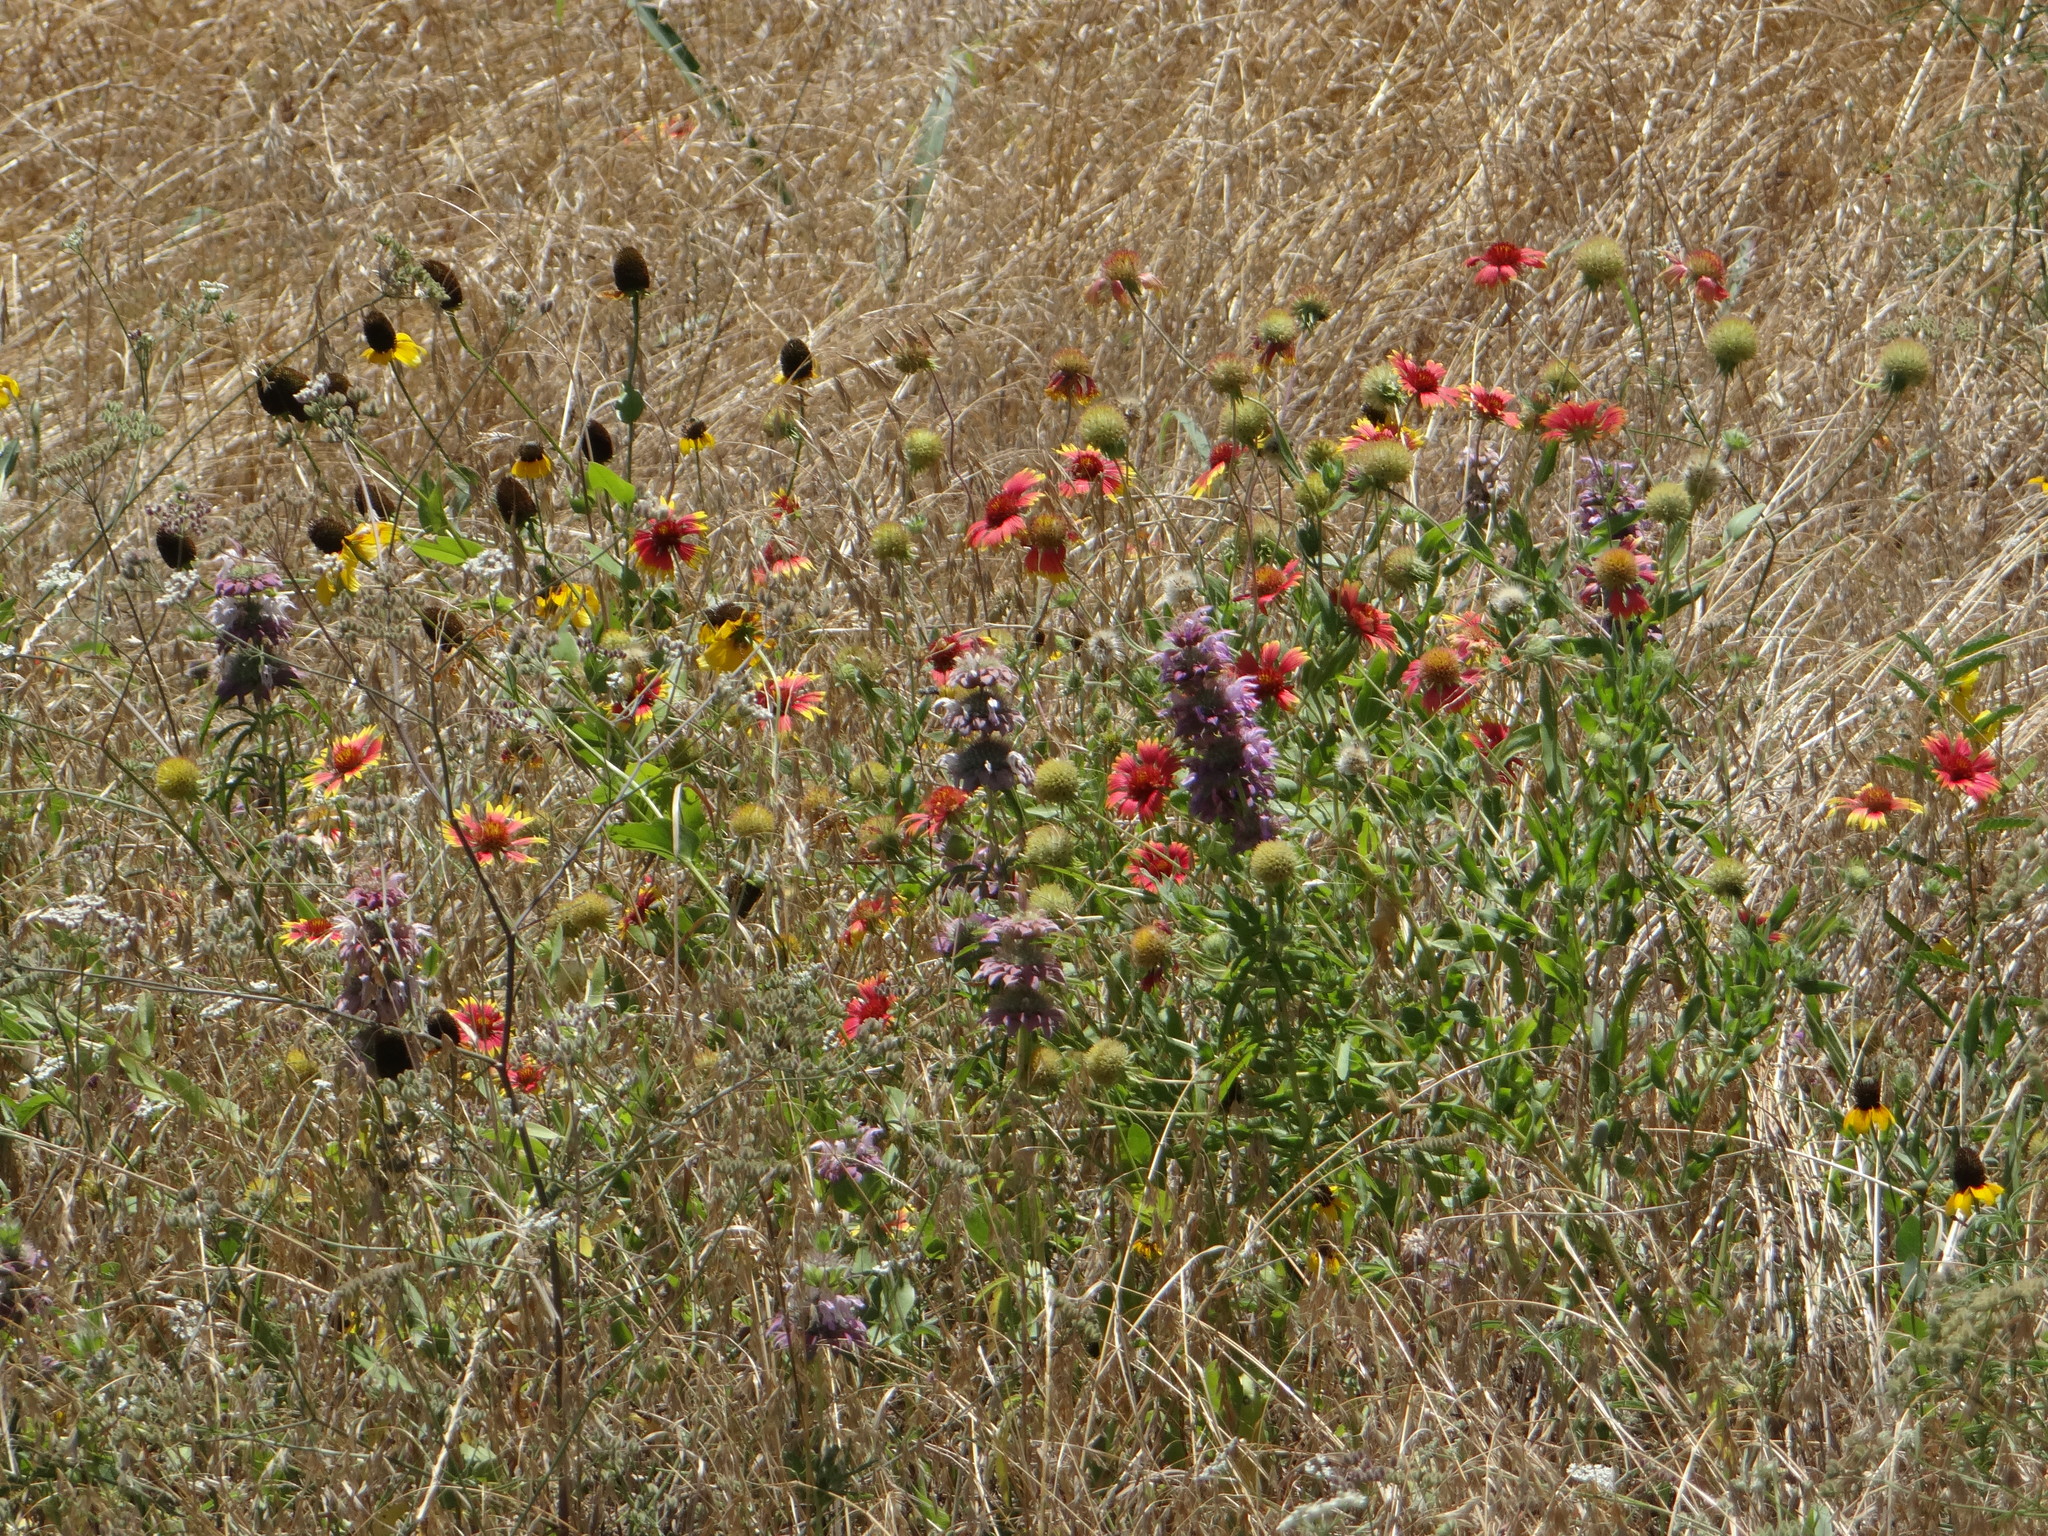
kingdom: Plantae
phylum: Tracheophyta
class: Magnoliopsida
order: Asterales
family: Asteraceae
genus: Gaillardia
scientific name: Gaillardia pulchella
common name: Firewheel
